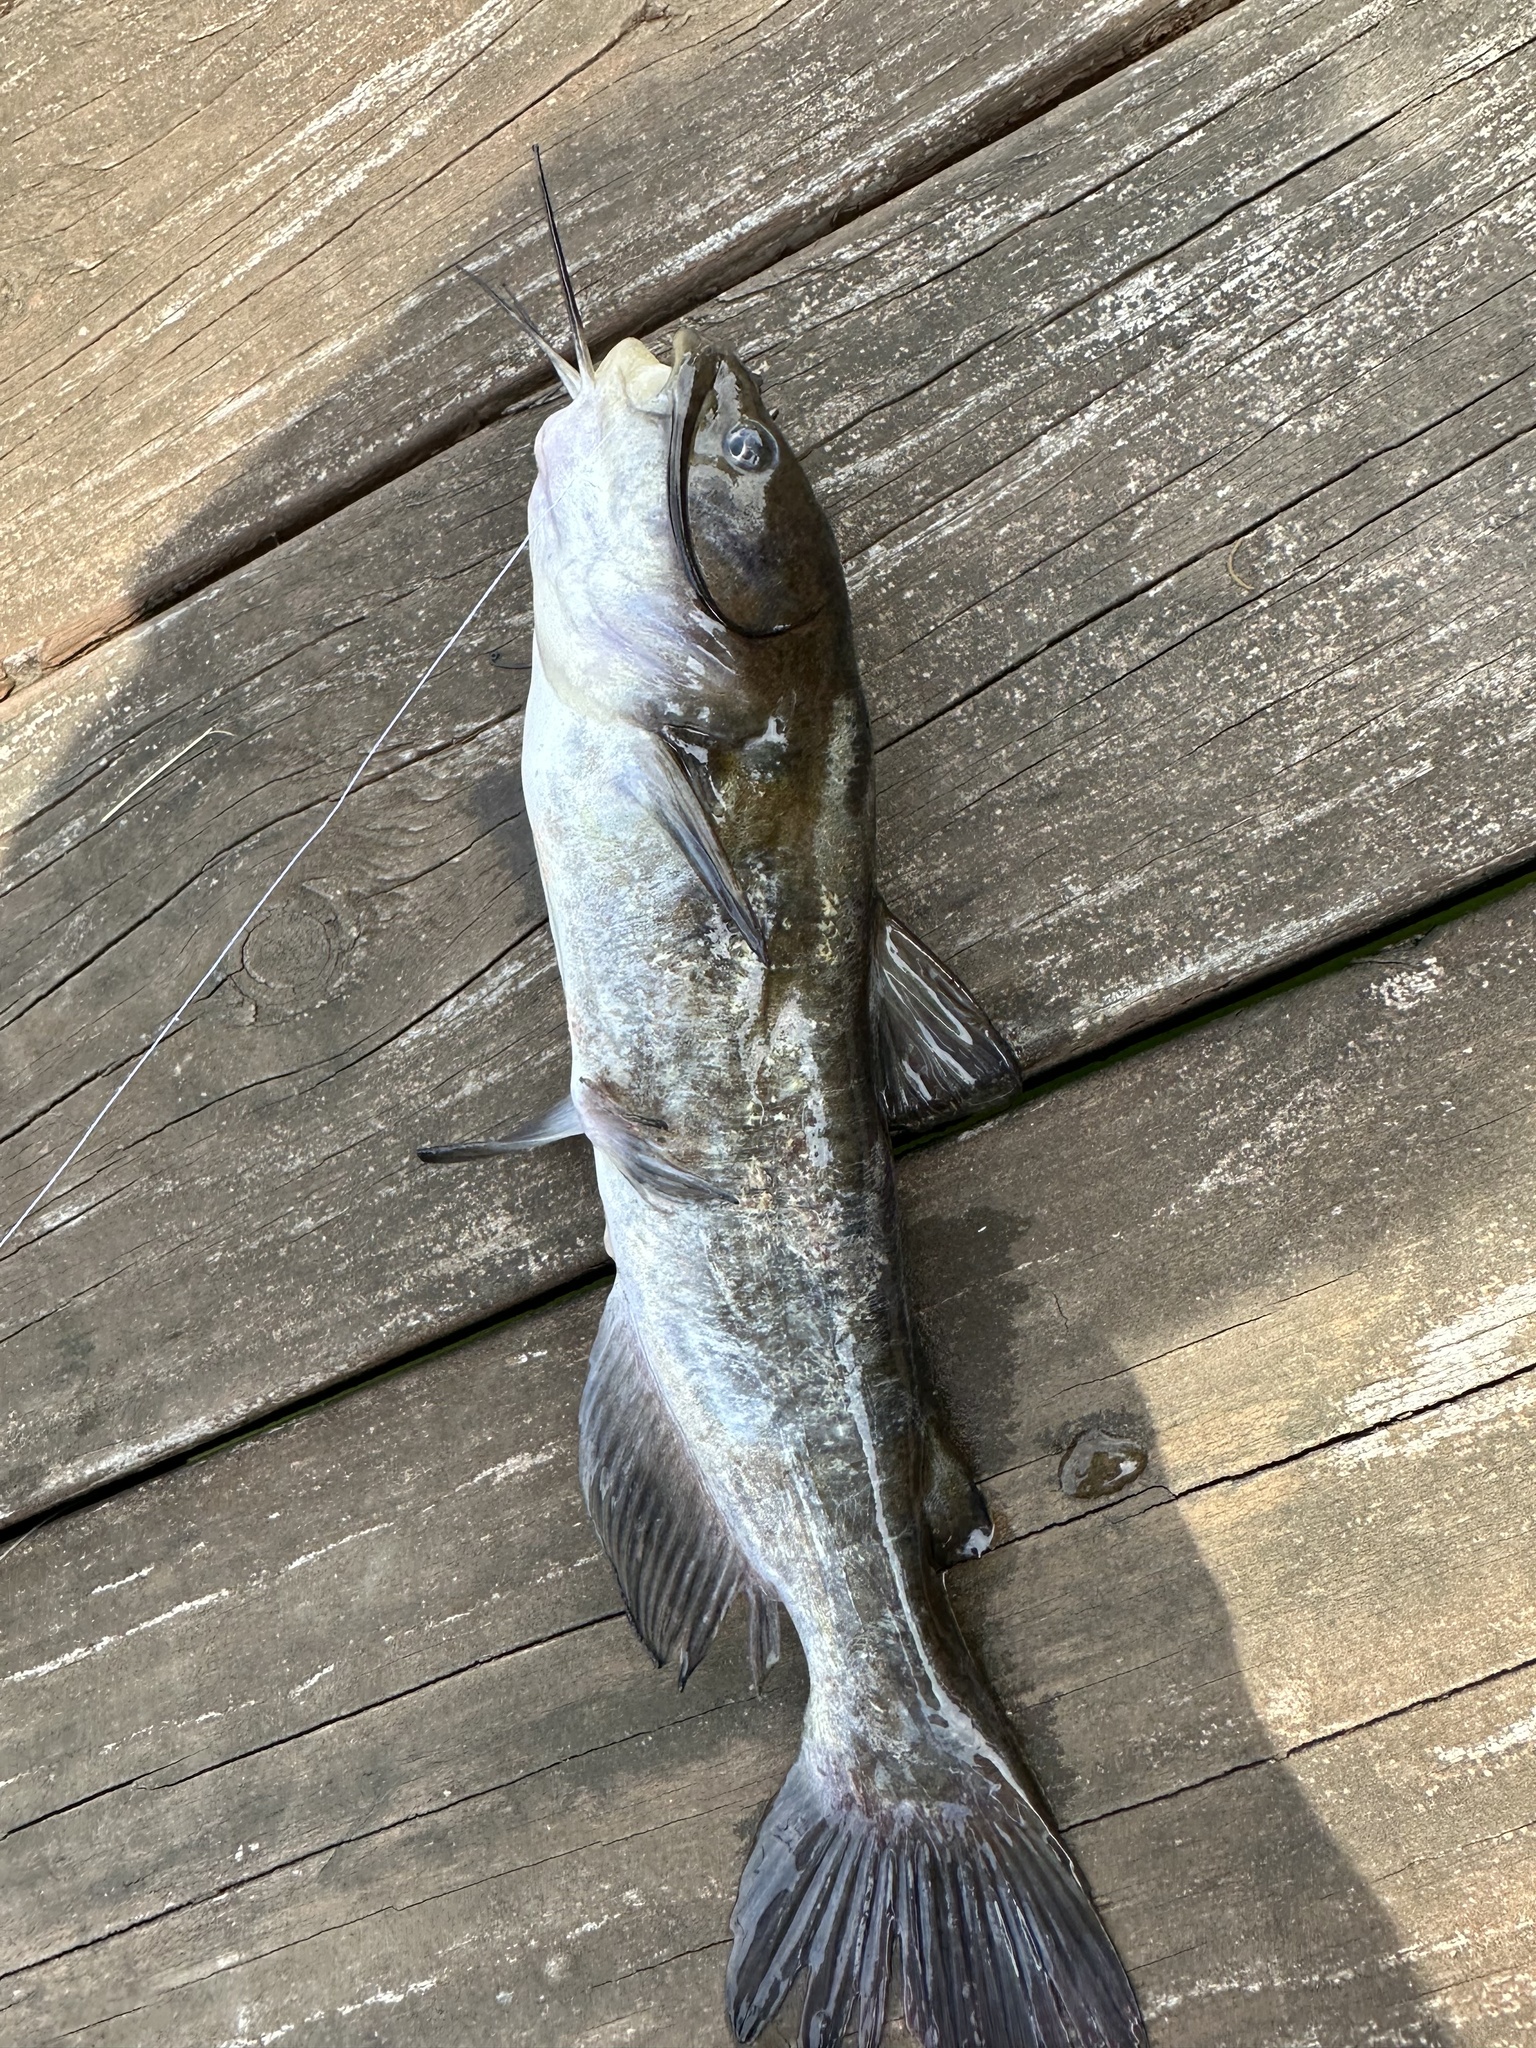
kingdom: Animalia
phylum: Chordata
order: Siluriformes
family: Ictaluridae
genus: Ameiurus
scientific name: Ameiurus nebulosus
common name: Brown bullhead
